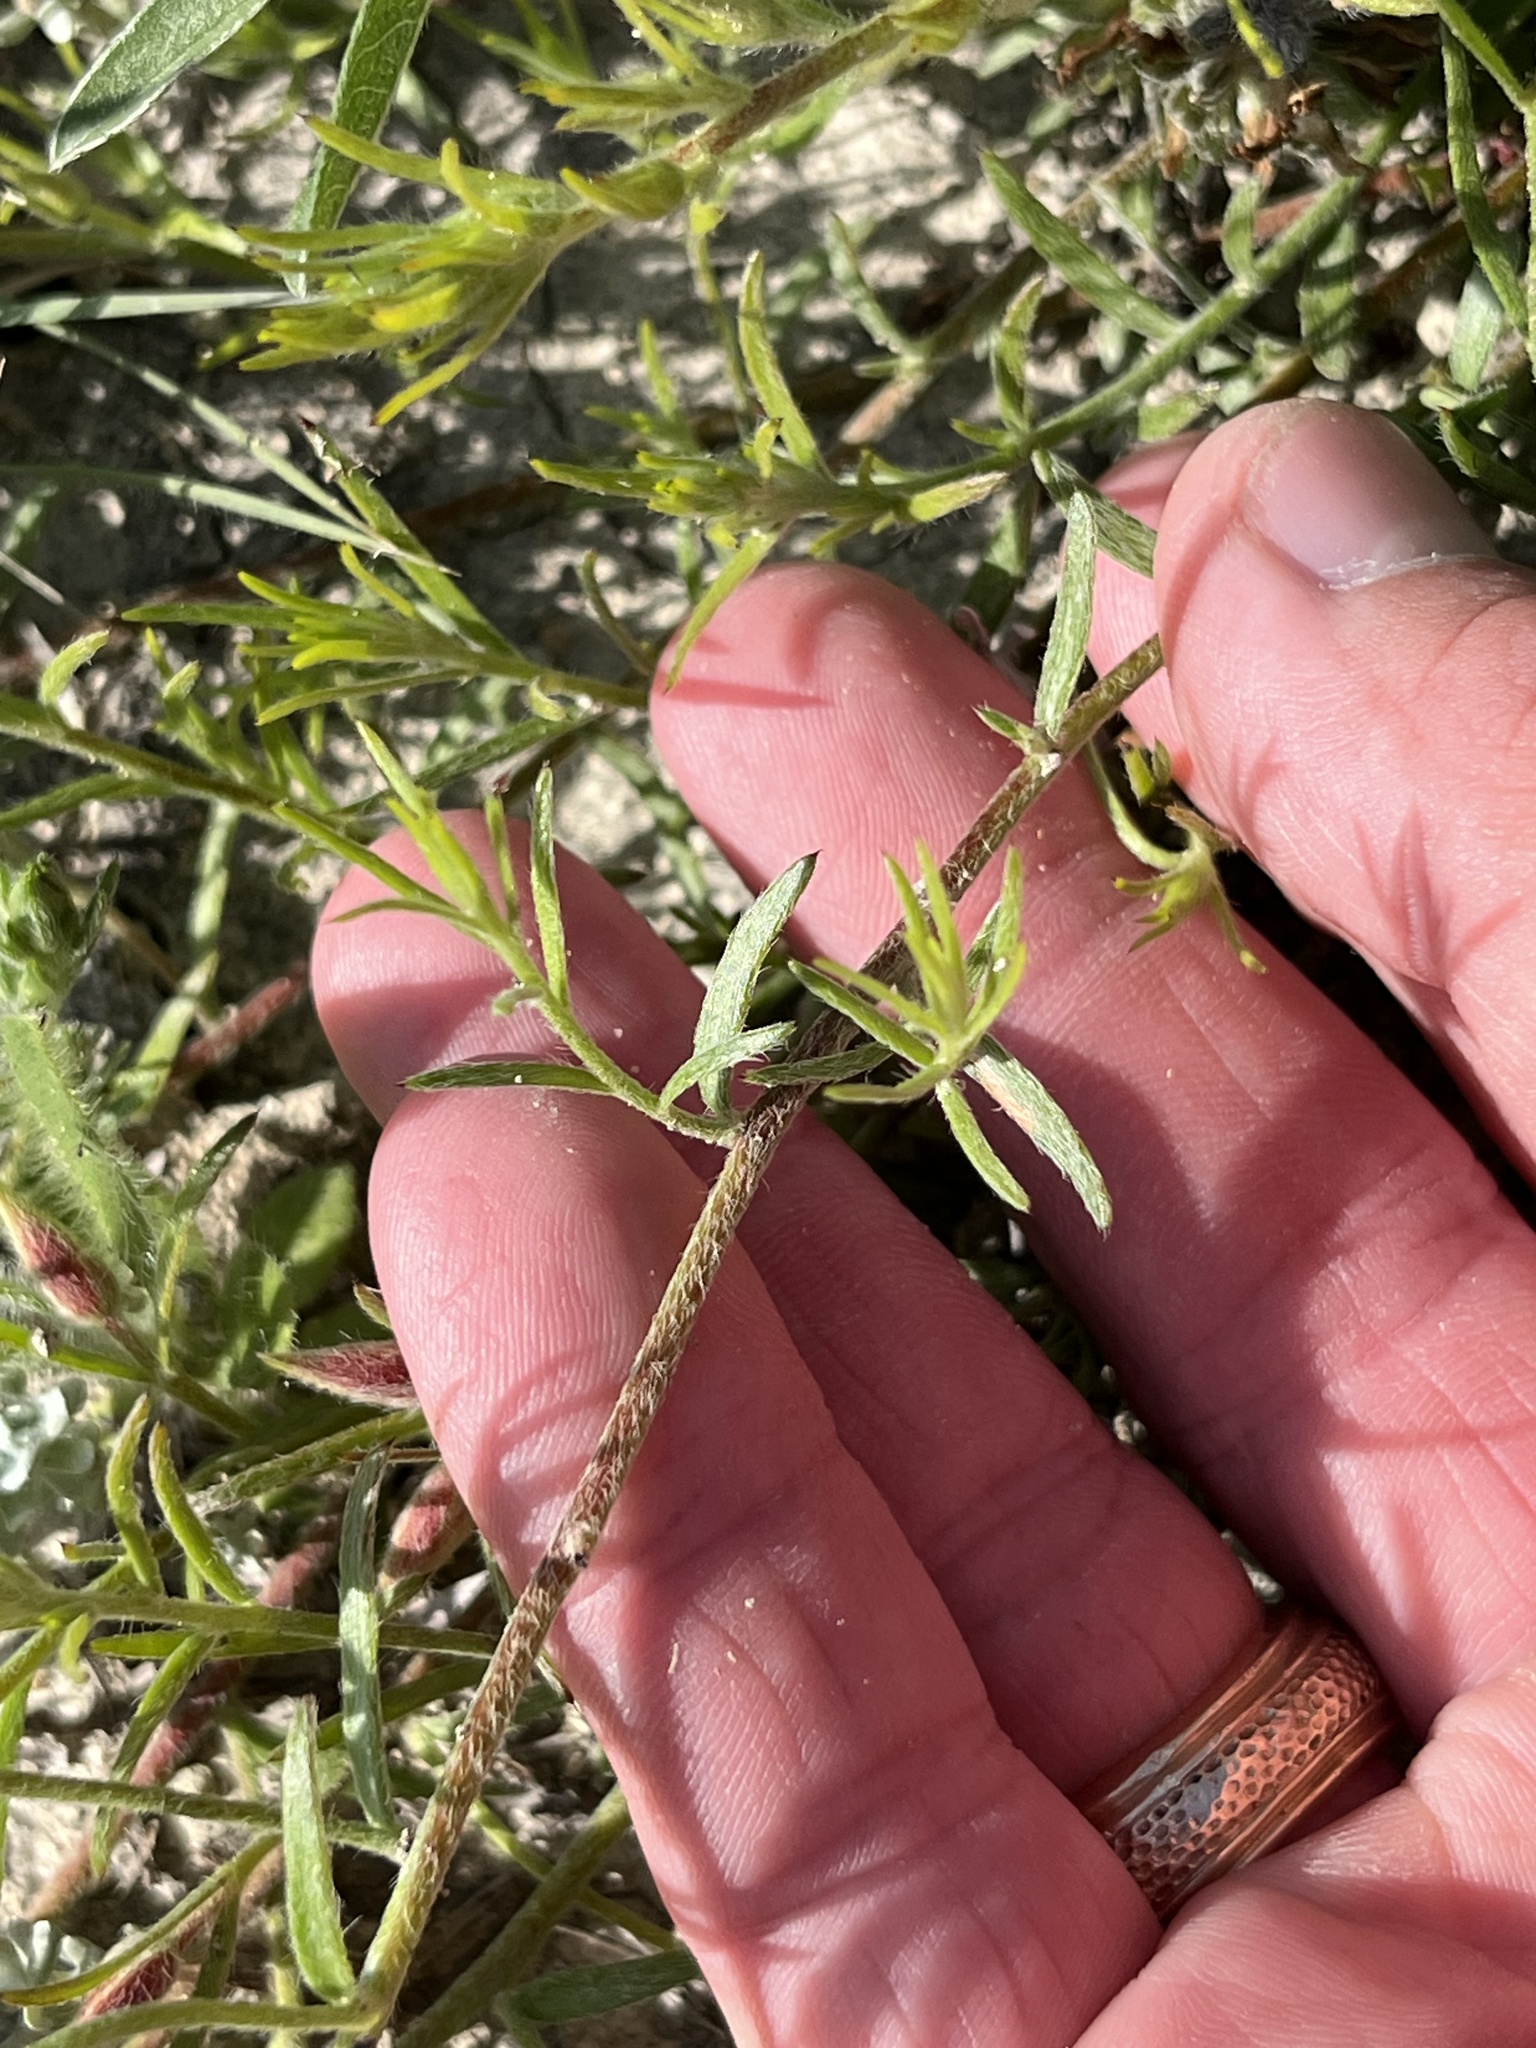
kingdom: Plantae
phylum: Tracheophyta
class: Magnoliopsida
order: Zygophyllales
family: Krameriaceae
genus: Krameria
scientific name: Krameria lanceolata
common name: Ratany
